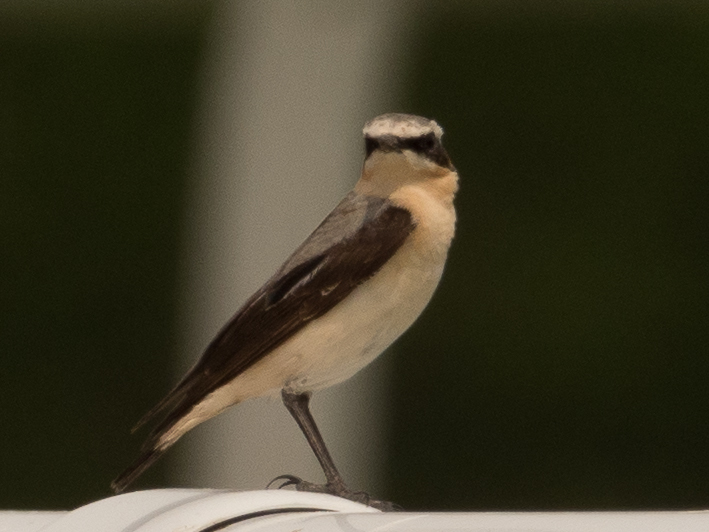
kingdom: Animalia
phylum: Chordata
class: Aves
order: Passeriformes
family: Muscicapidae
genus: Oenanthe
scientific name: Oenanthe oenanthe
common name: Northern wheatear
